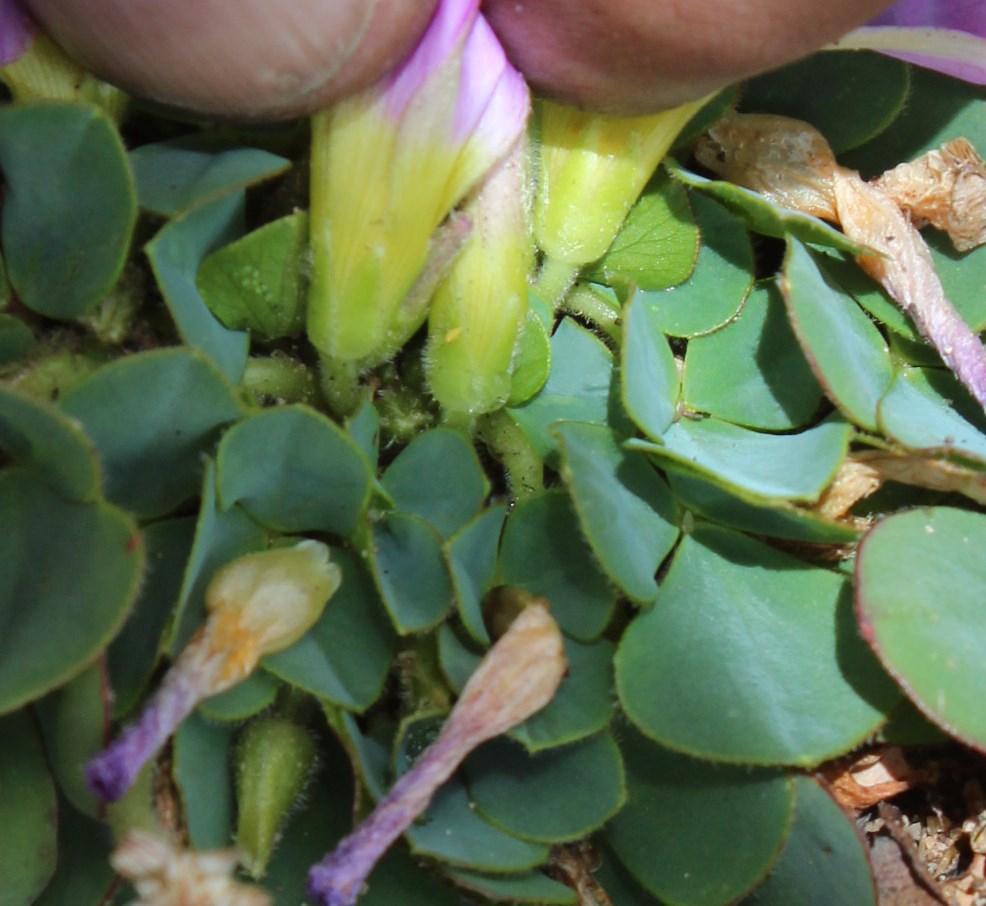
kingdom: Plantae
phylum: Tracheophyta
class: Magnoliopsida
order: Oxalidales
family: Oxalidaceae
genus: Oxalis
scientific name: Oxalis purpurea
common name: Purple woodsorrel
